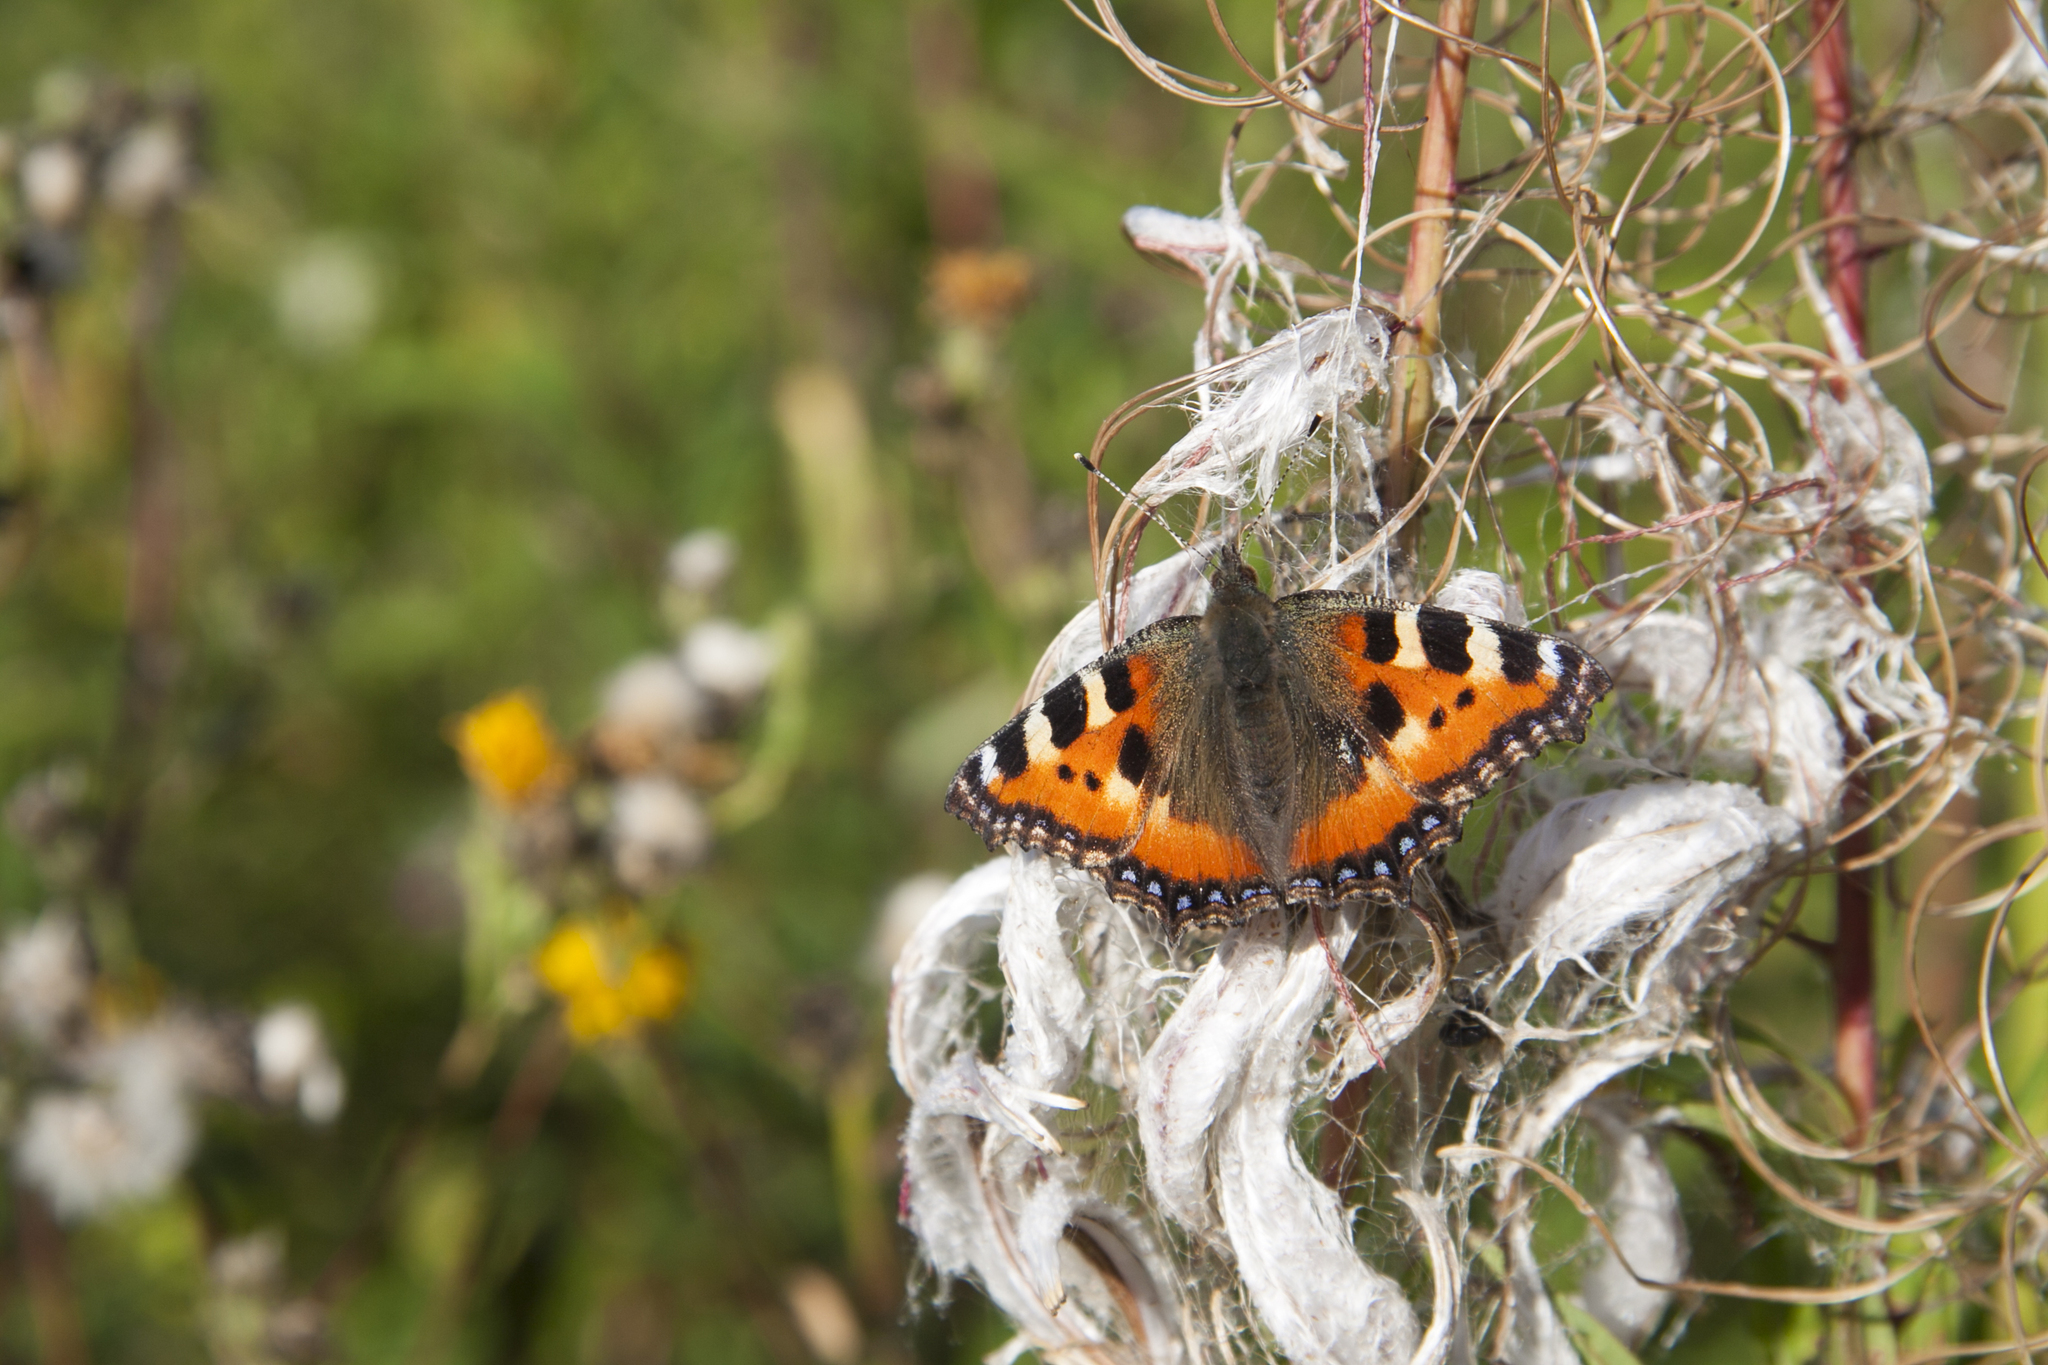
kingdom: Animalia
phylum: Arthropoda
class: Insecta
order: Lepidoptera
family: Nymphalidae
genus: Aglais
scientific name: Aglais urticae
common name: Small tortoiseshell
